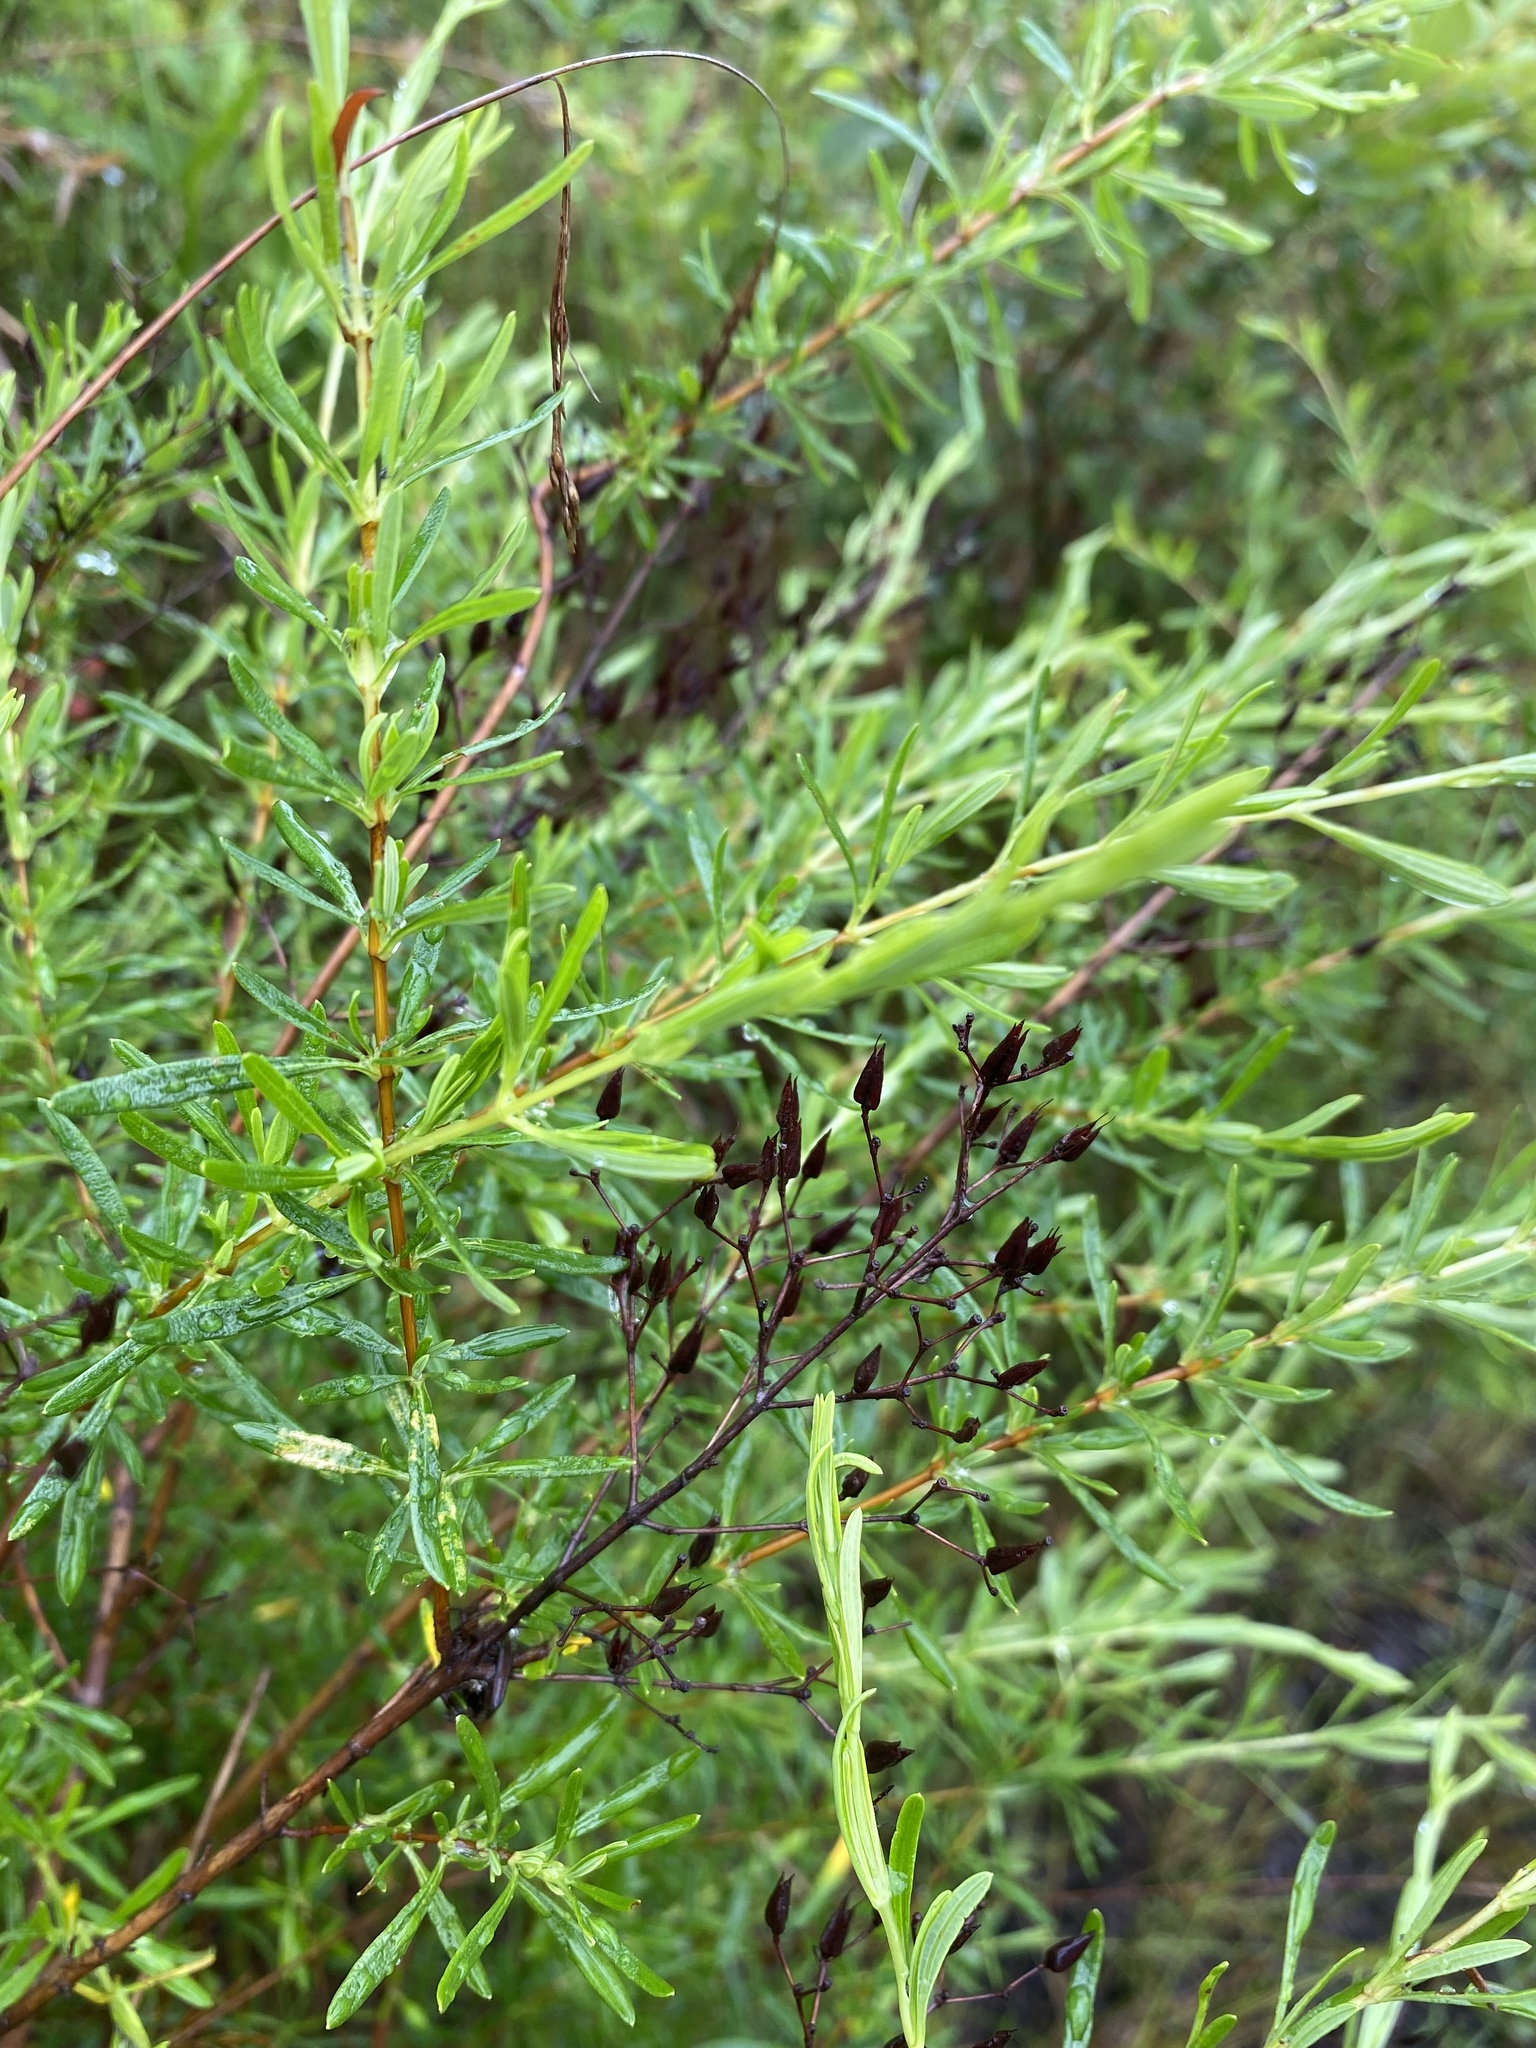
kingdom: Plantae
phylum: Tracheophyta
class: Magnoliopsida
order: Malpighiales
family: Hypericaceae
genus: Hypericum
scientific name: Hypericum galioides
